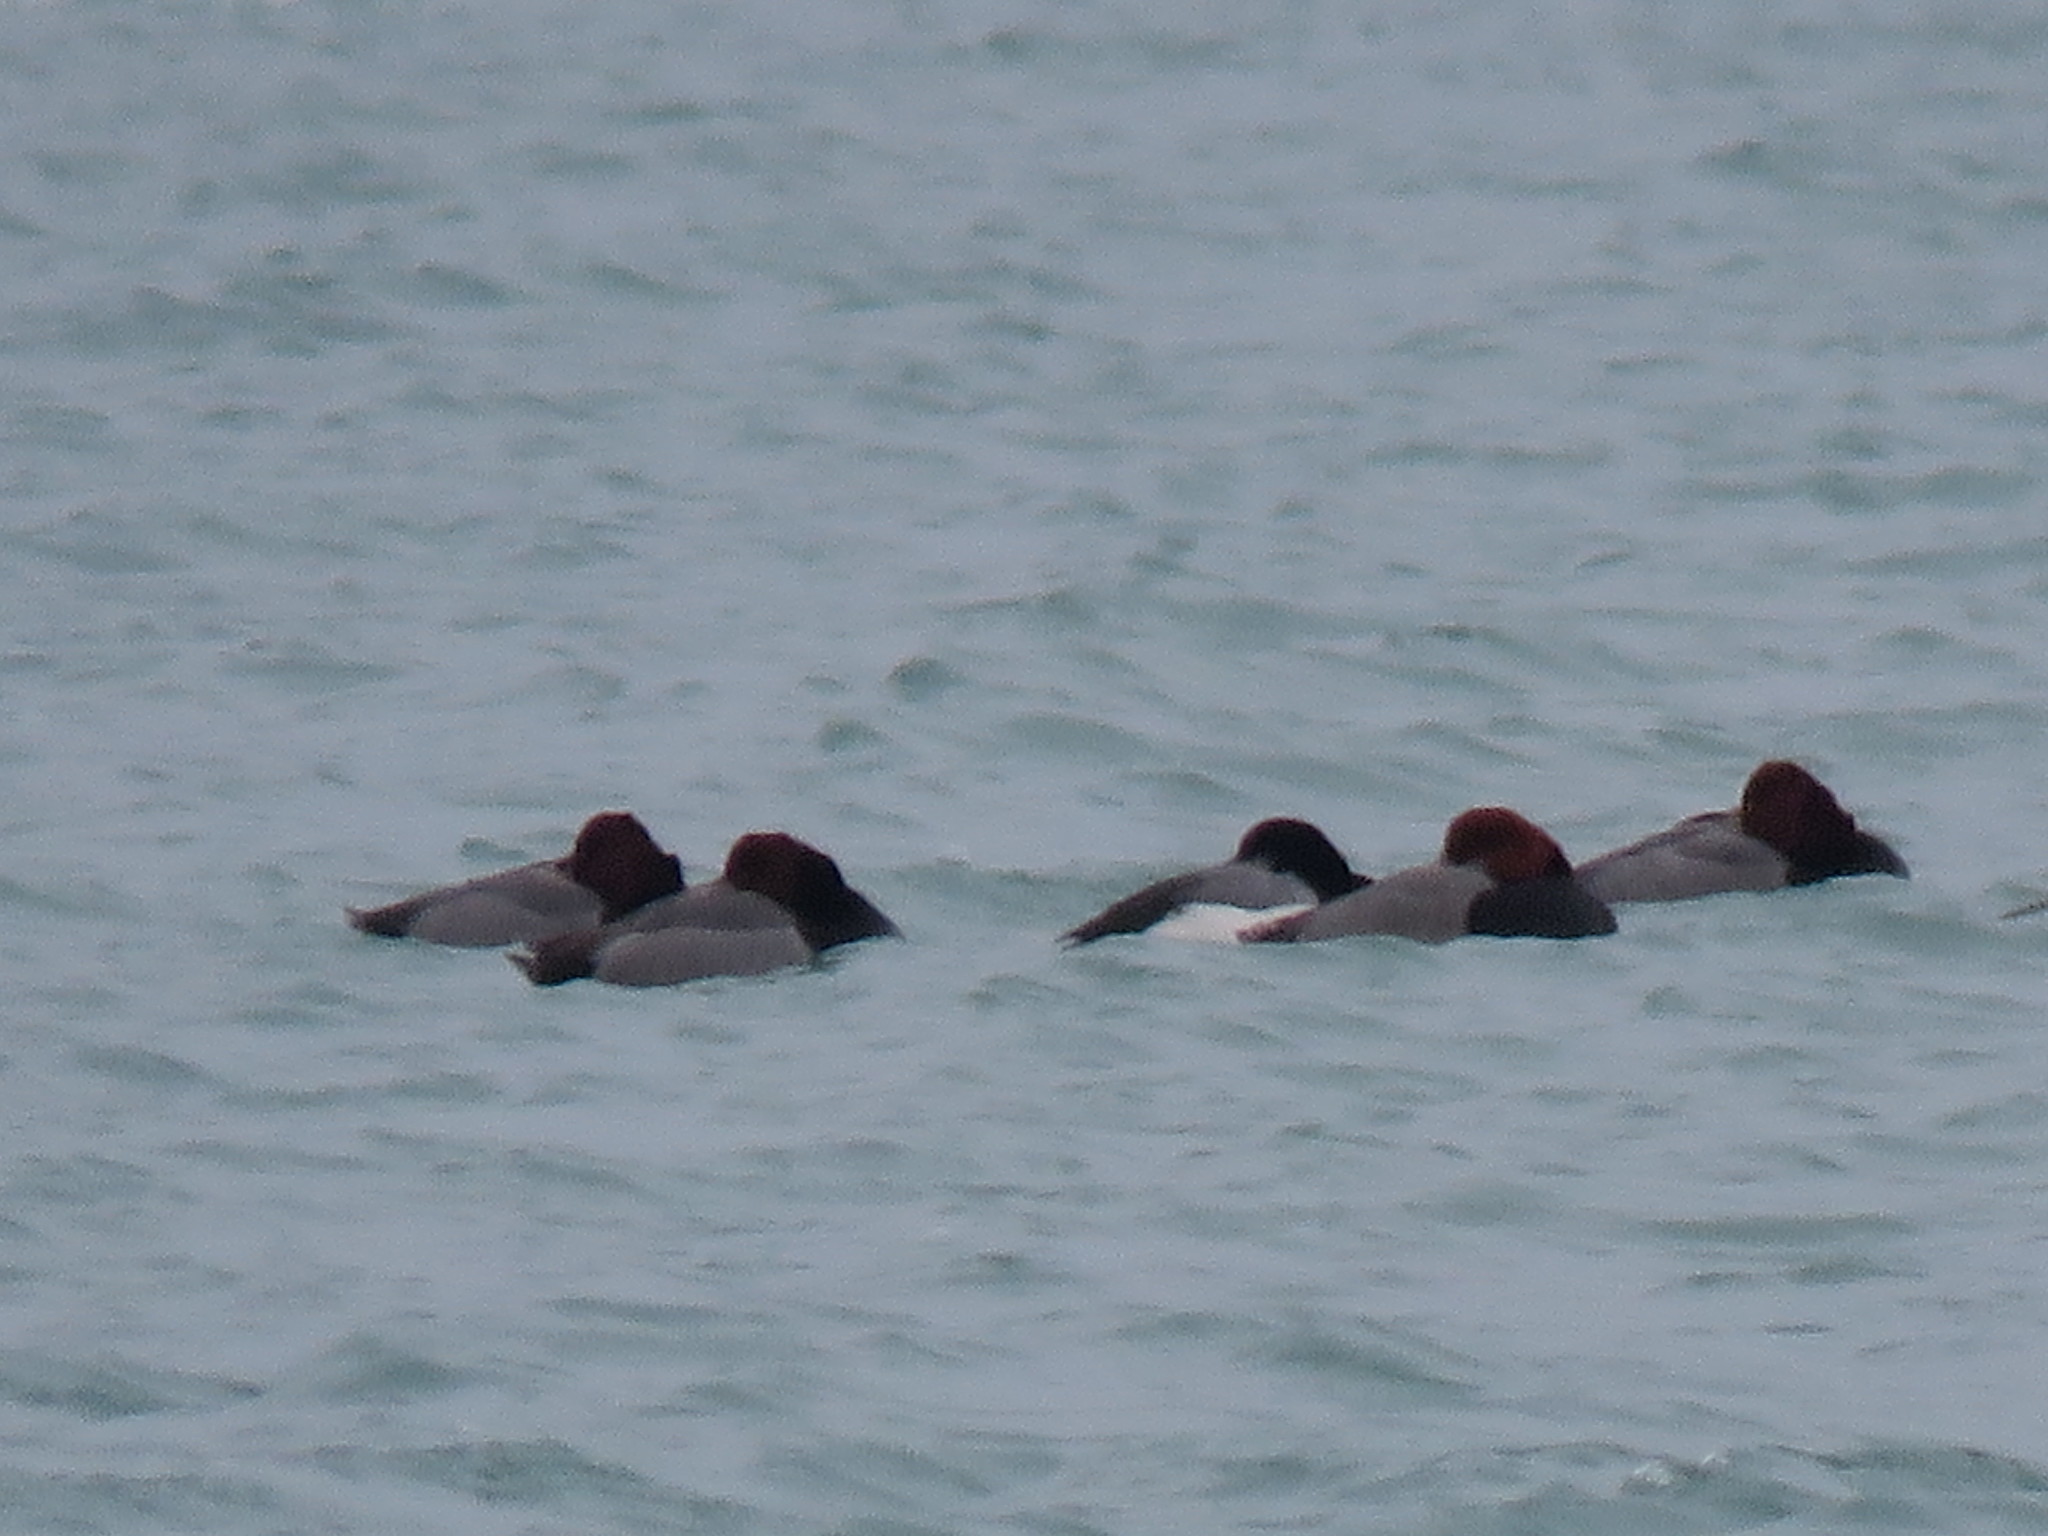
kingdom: Animalia
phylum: Chordata
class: Aves
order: Anseriformes
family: Anatidae
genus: Aythya
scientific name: Aythya americana
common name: Redhead
